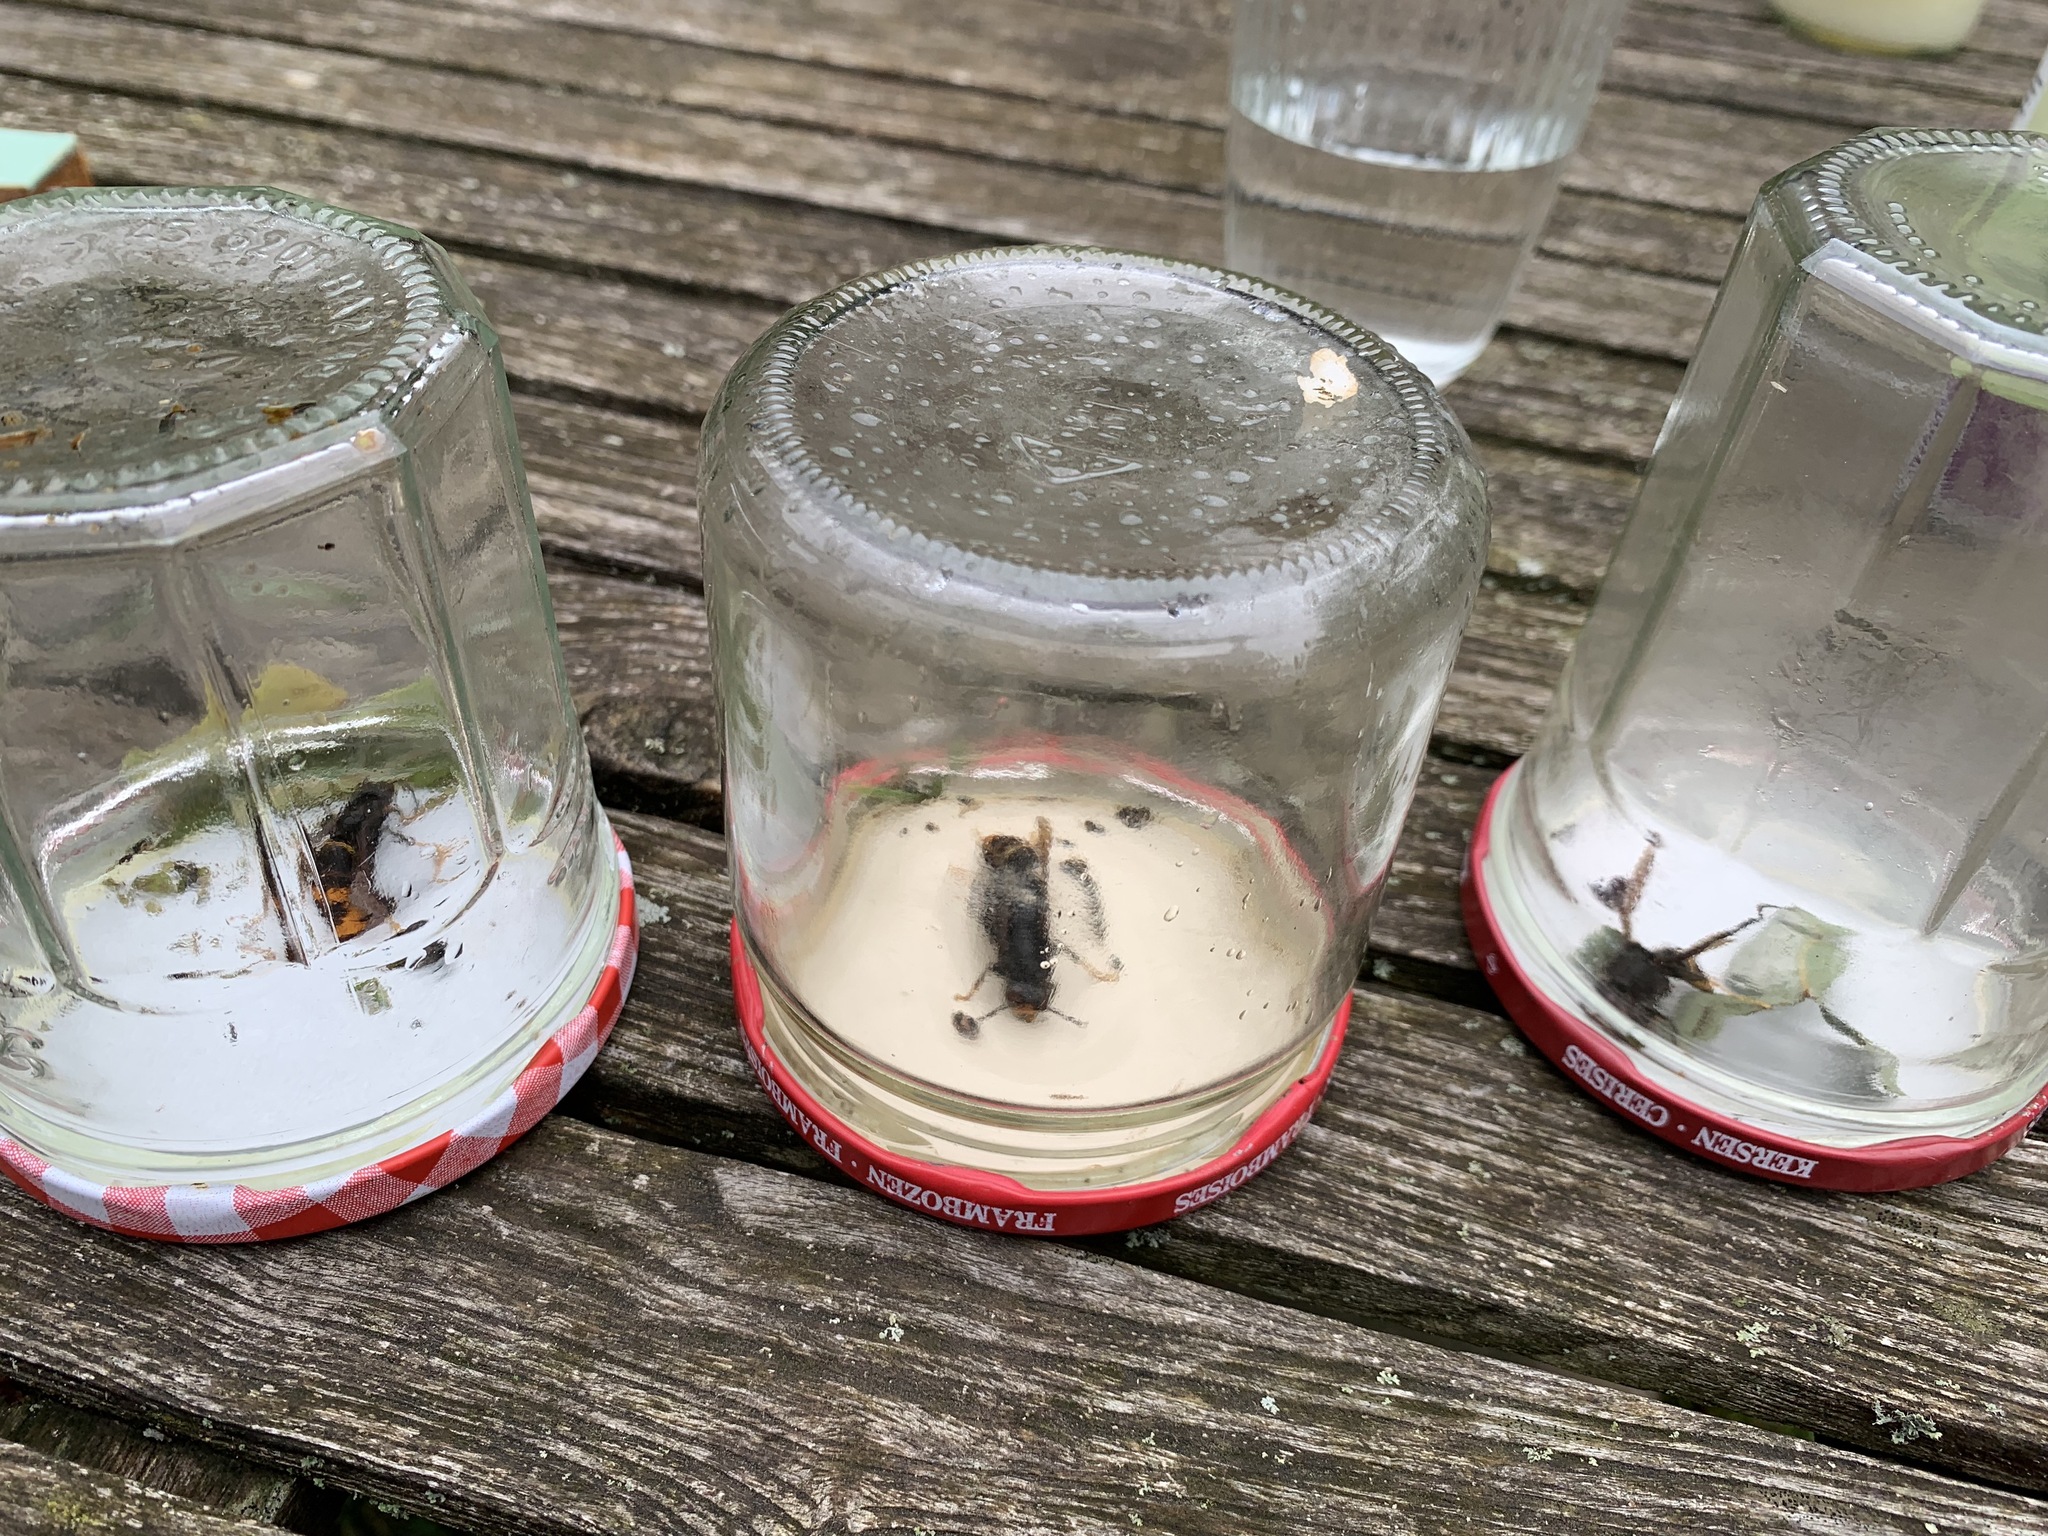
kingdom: Animalia
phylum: Arthropoda
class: Insecta
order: Hymenoptera
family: Vespidae
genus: Vespa
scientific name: Vespa velutina
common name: Asian hornet
